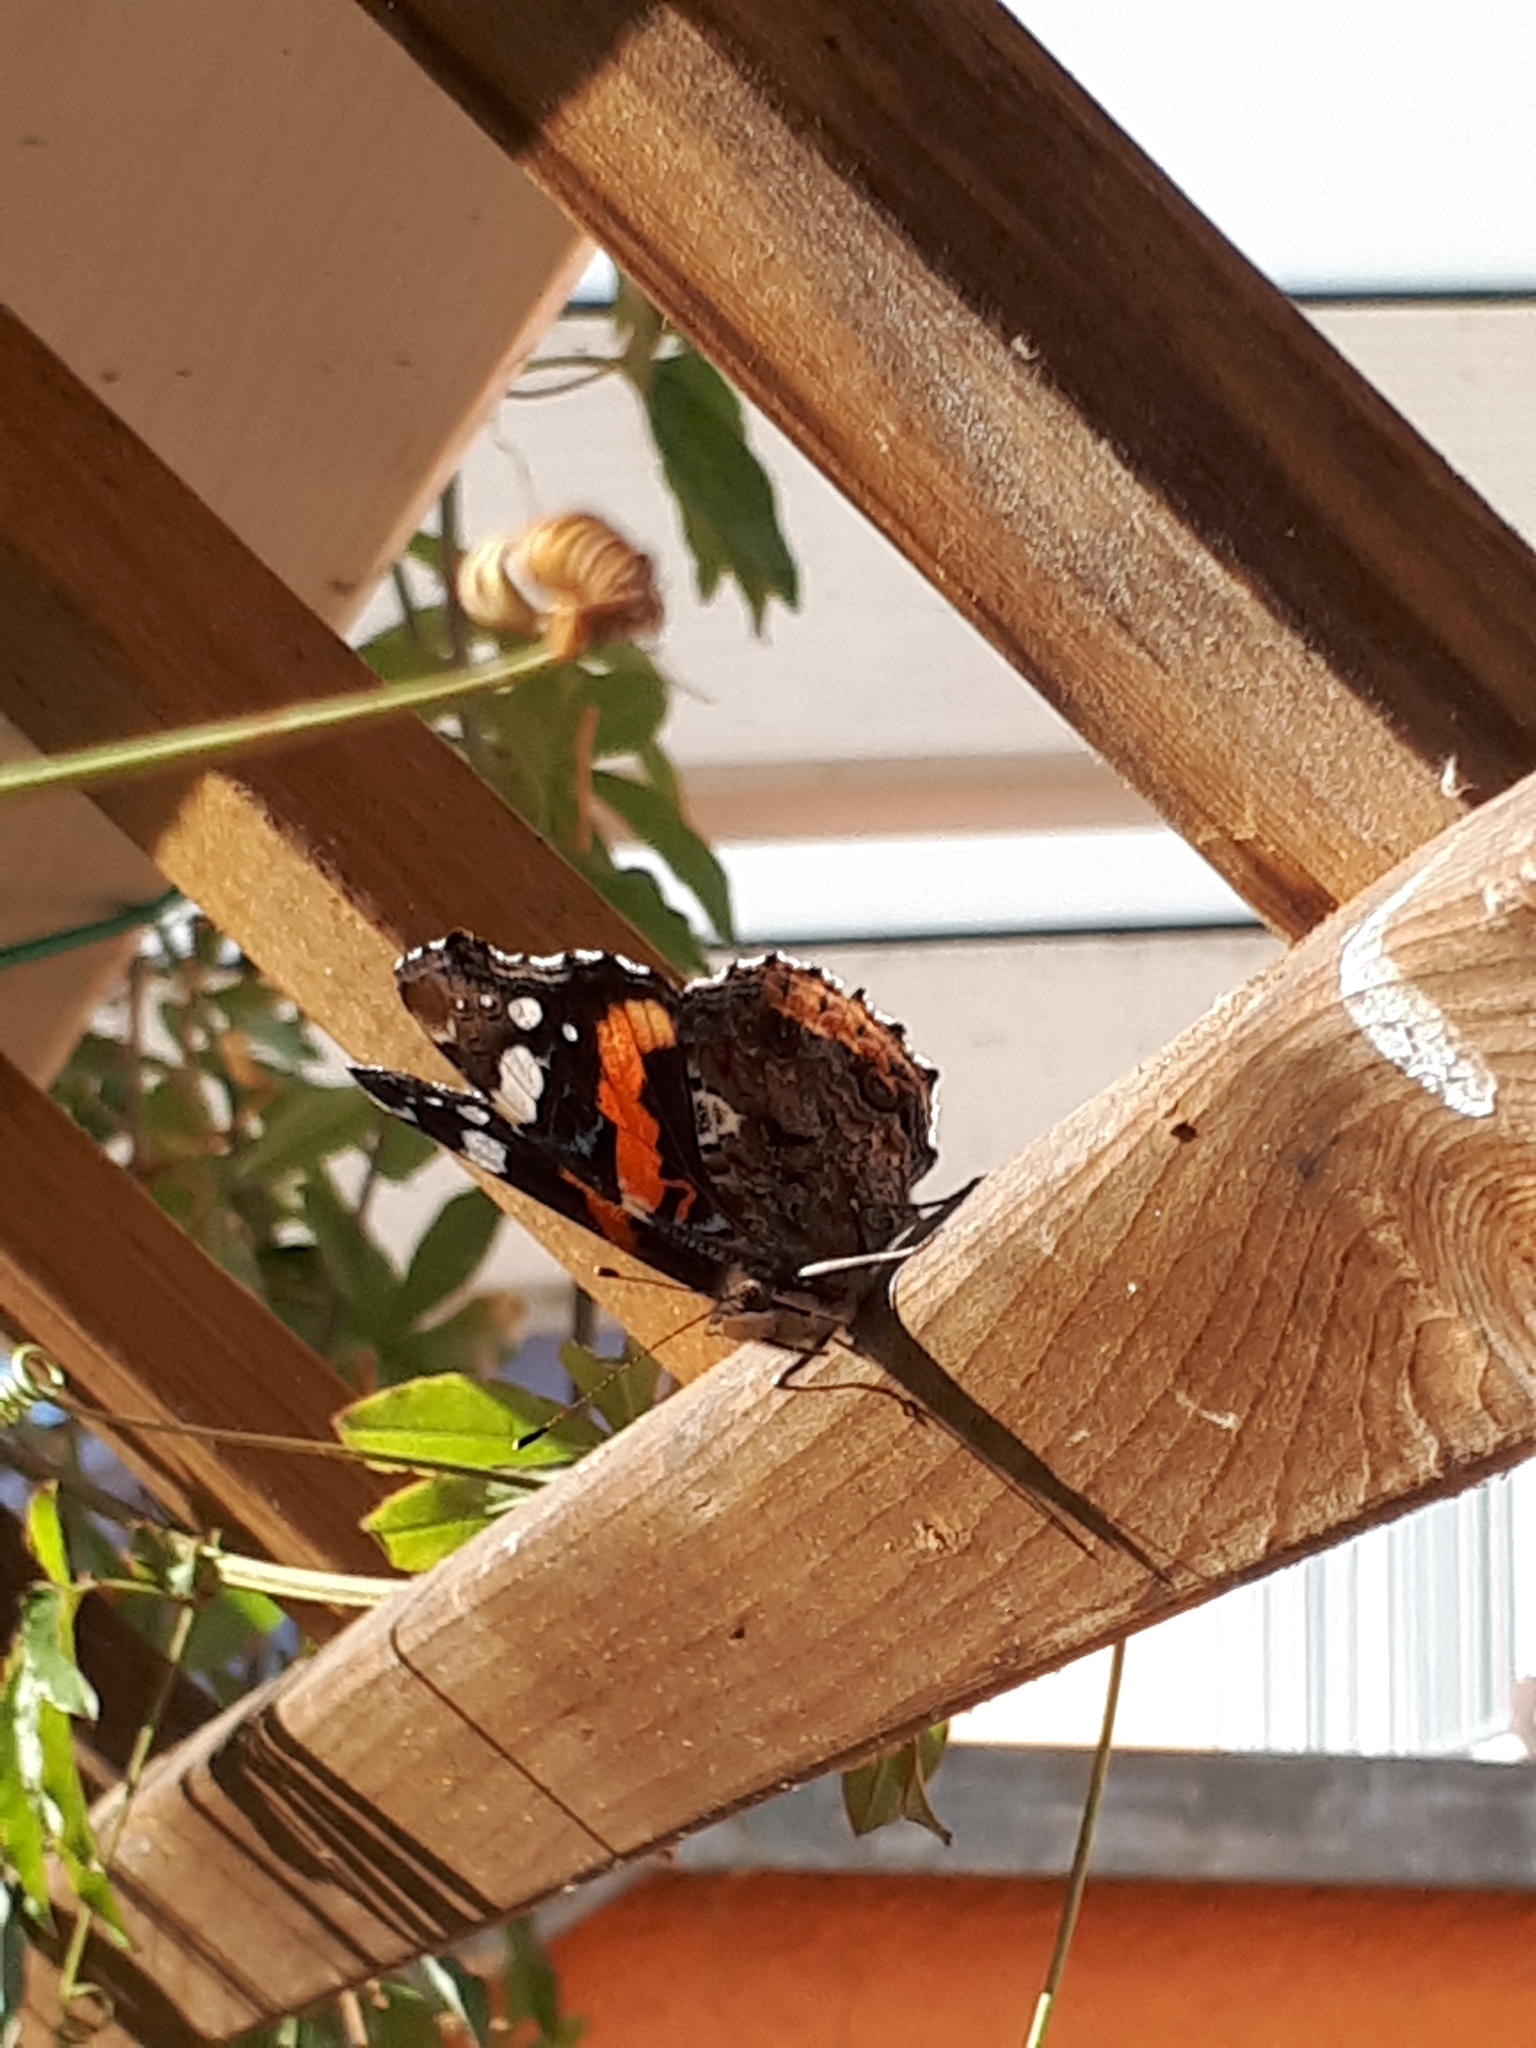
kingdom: Animalia
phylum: Arthropoda
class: Insecta
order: Lepidoptera
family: Nymphalidae
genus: Vanessa
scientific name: Vanessa atalanta
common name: Red admiral
